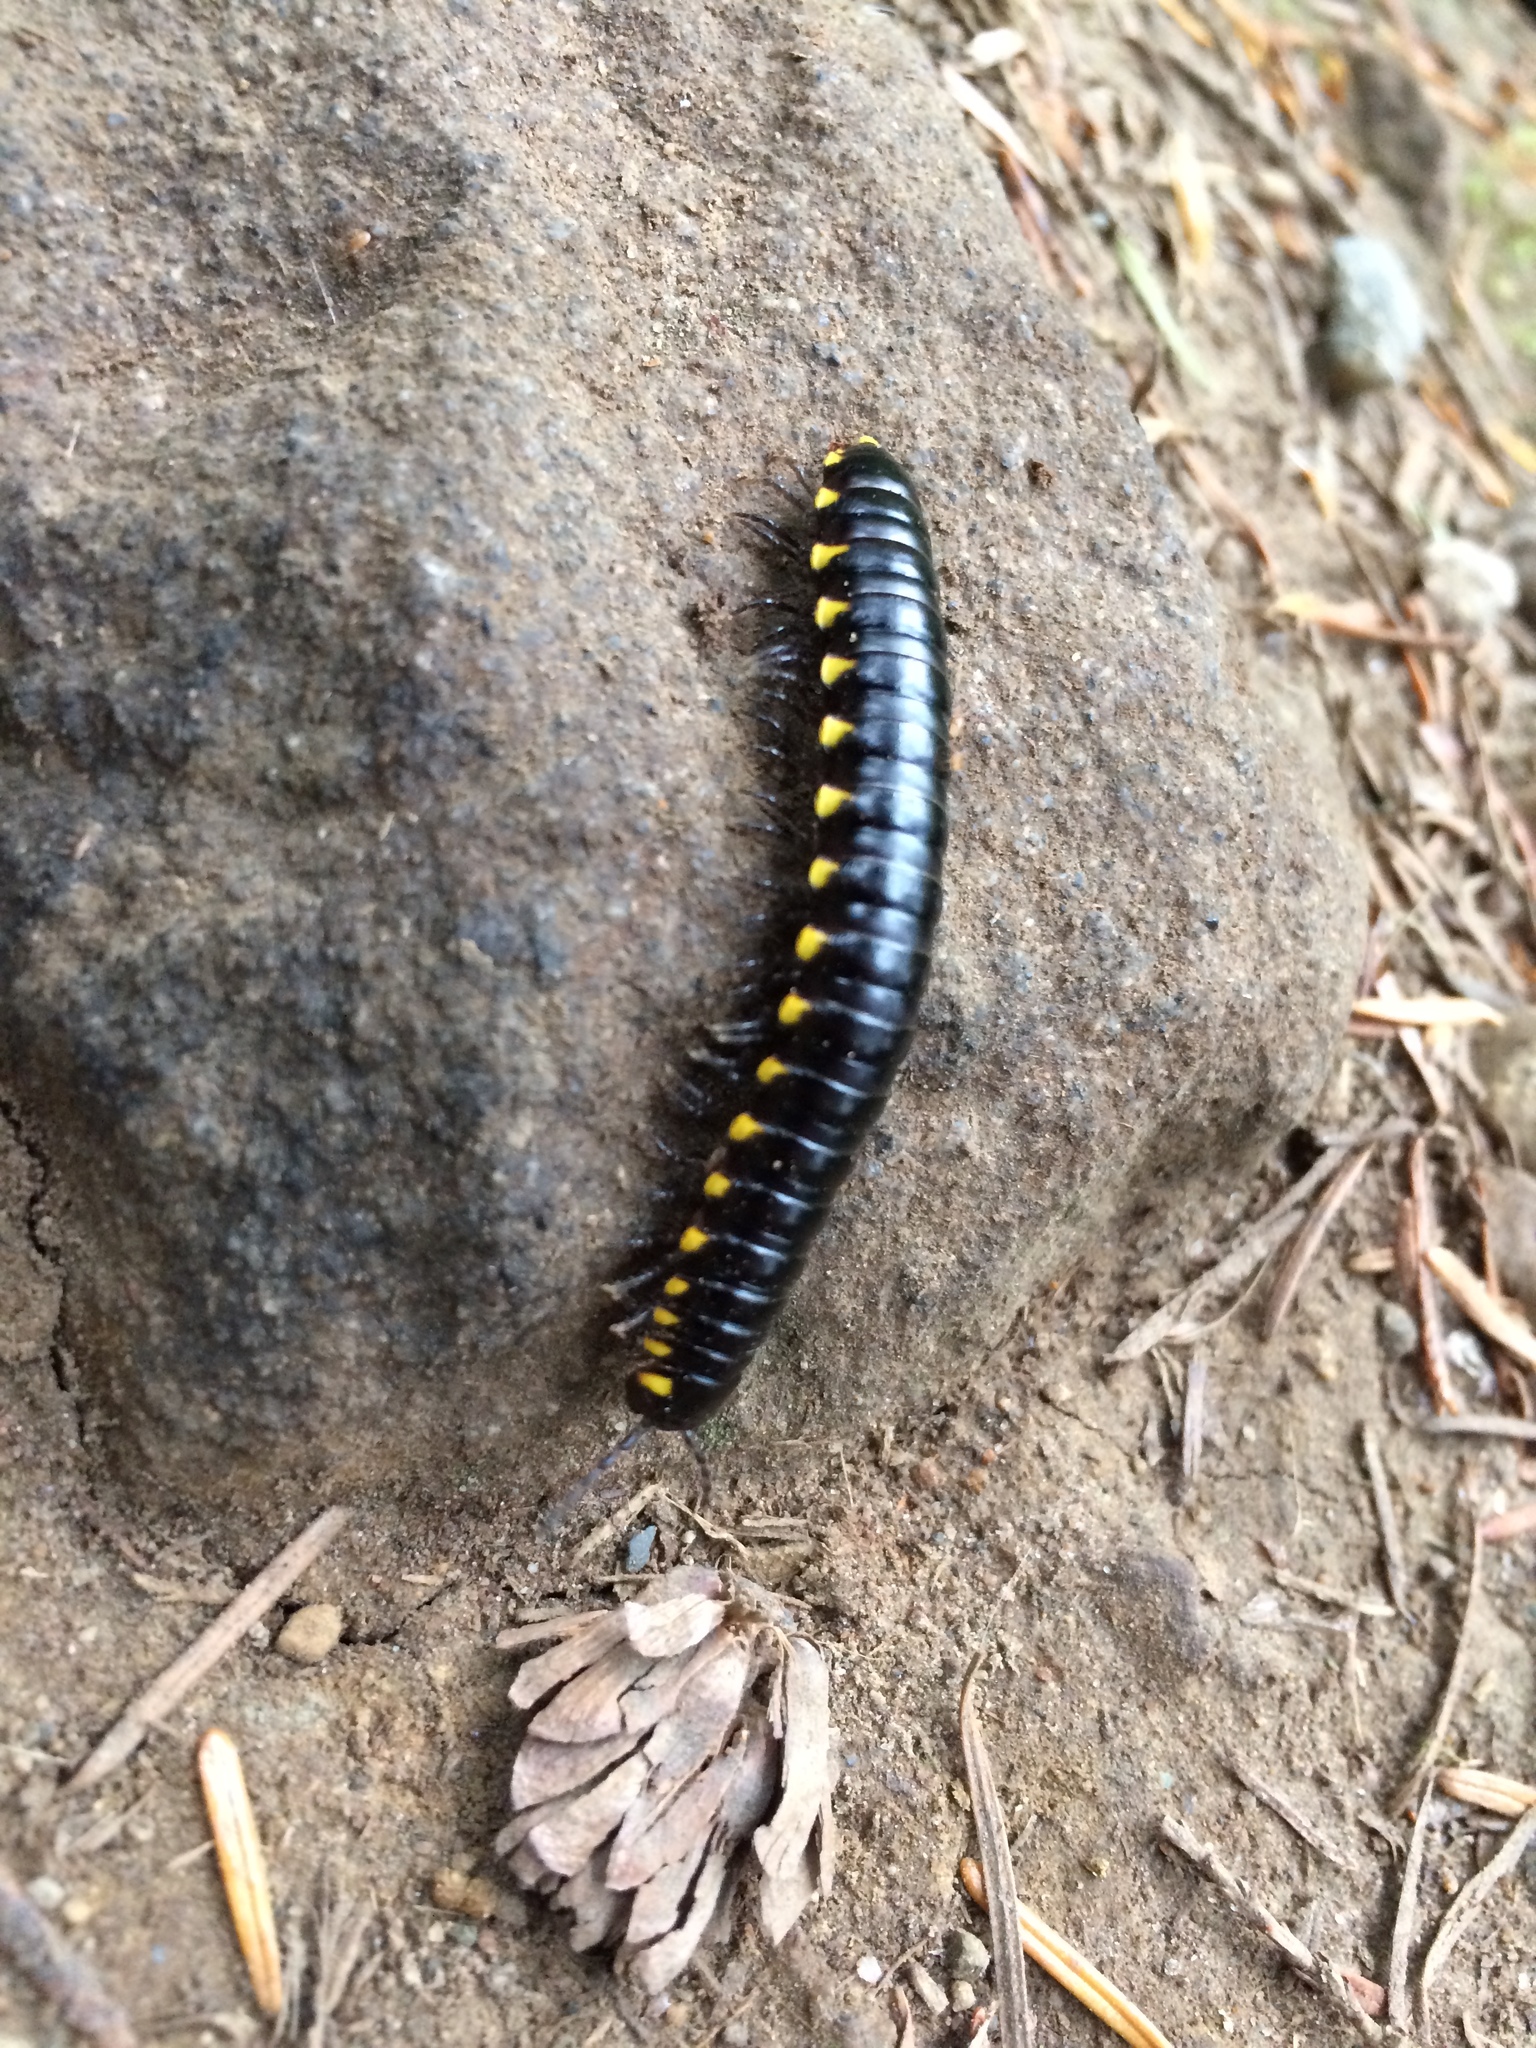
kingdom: Animalia
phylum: Arthropoda
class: Diplopoda
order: Polydesmida
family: Xystodesmidae
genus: Harpaphe
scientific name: Harpaphe haydeniana
